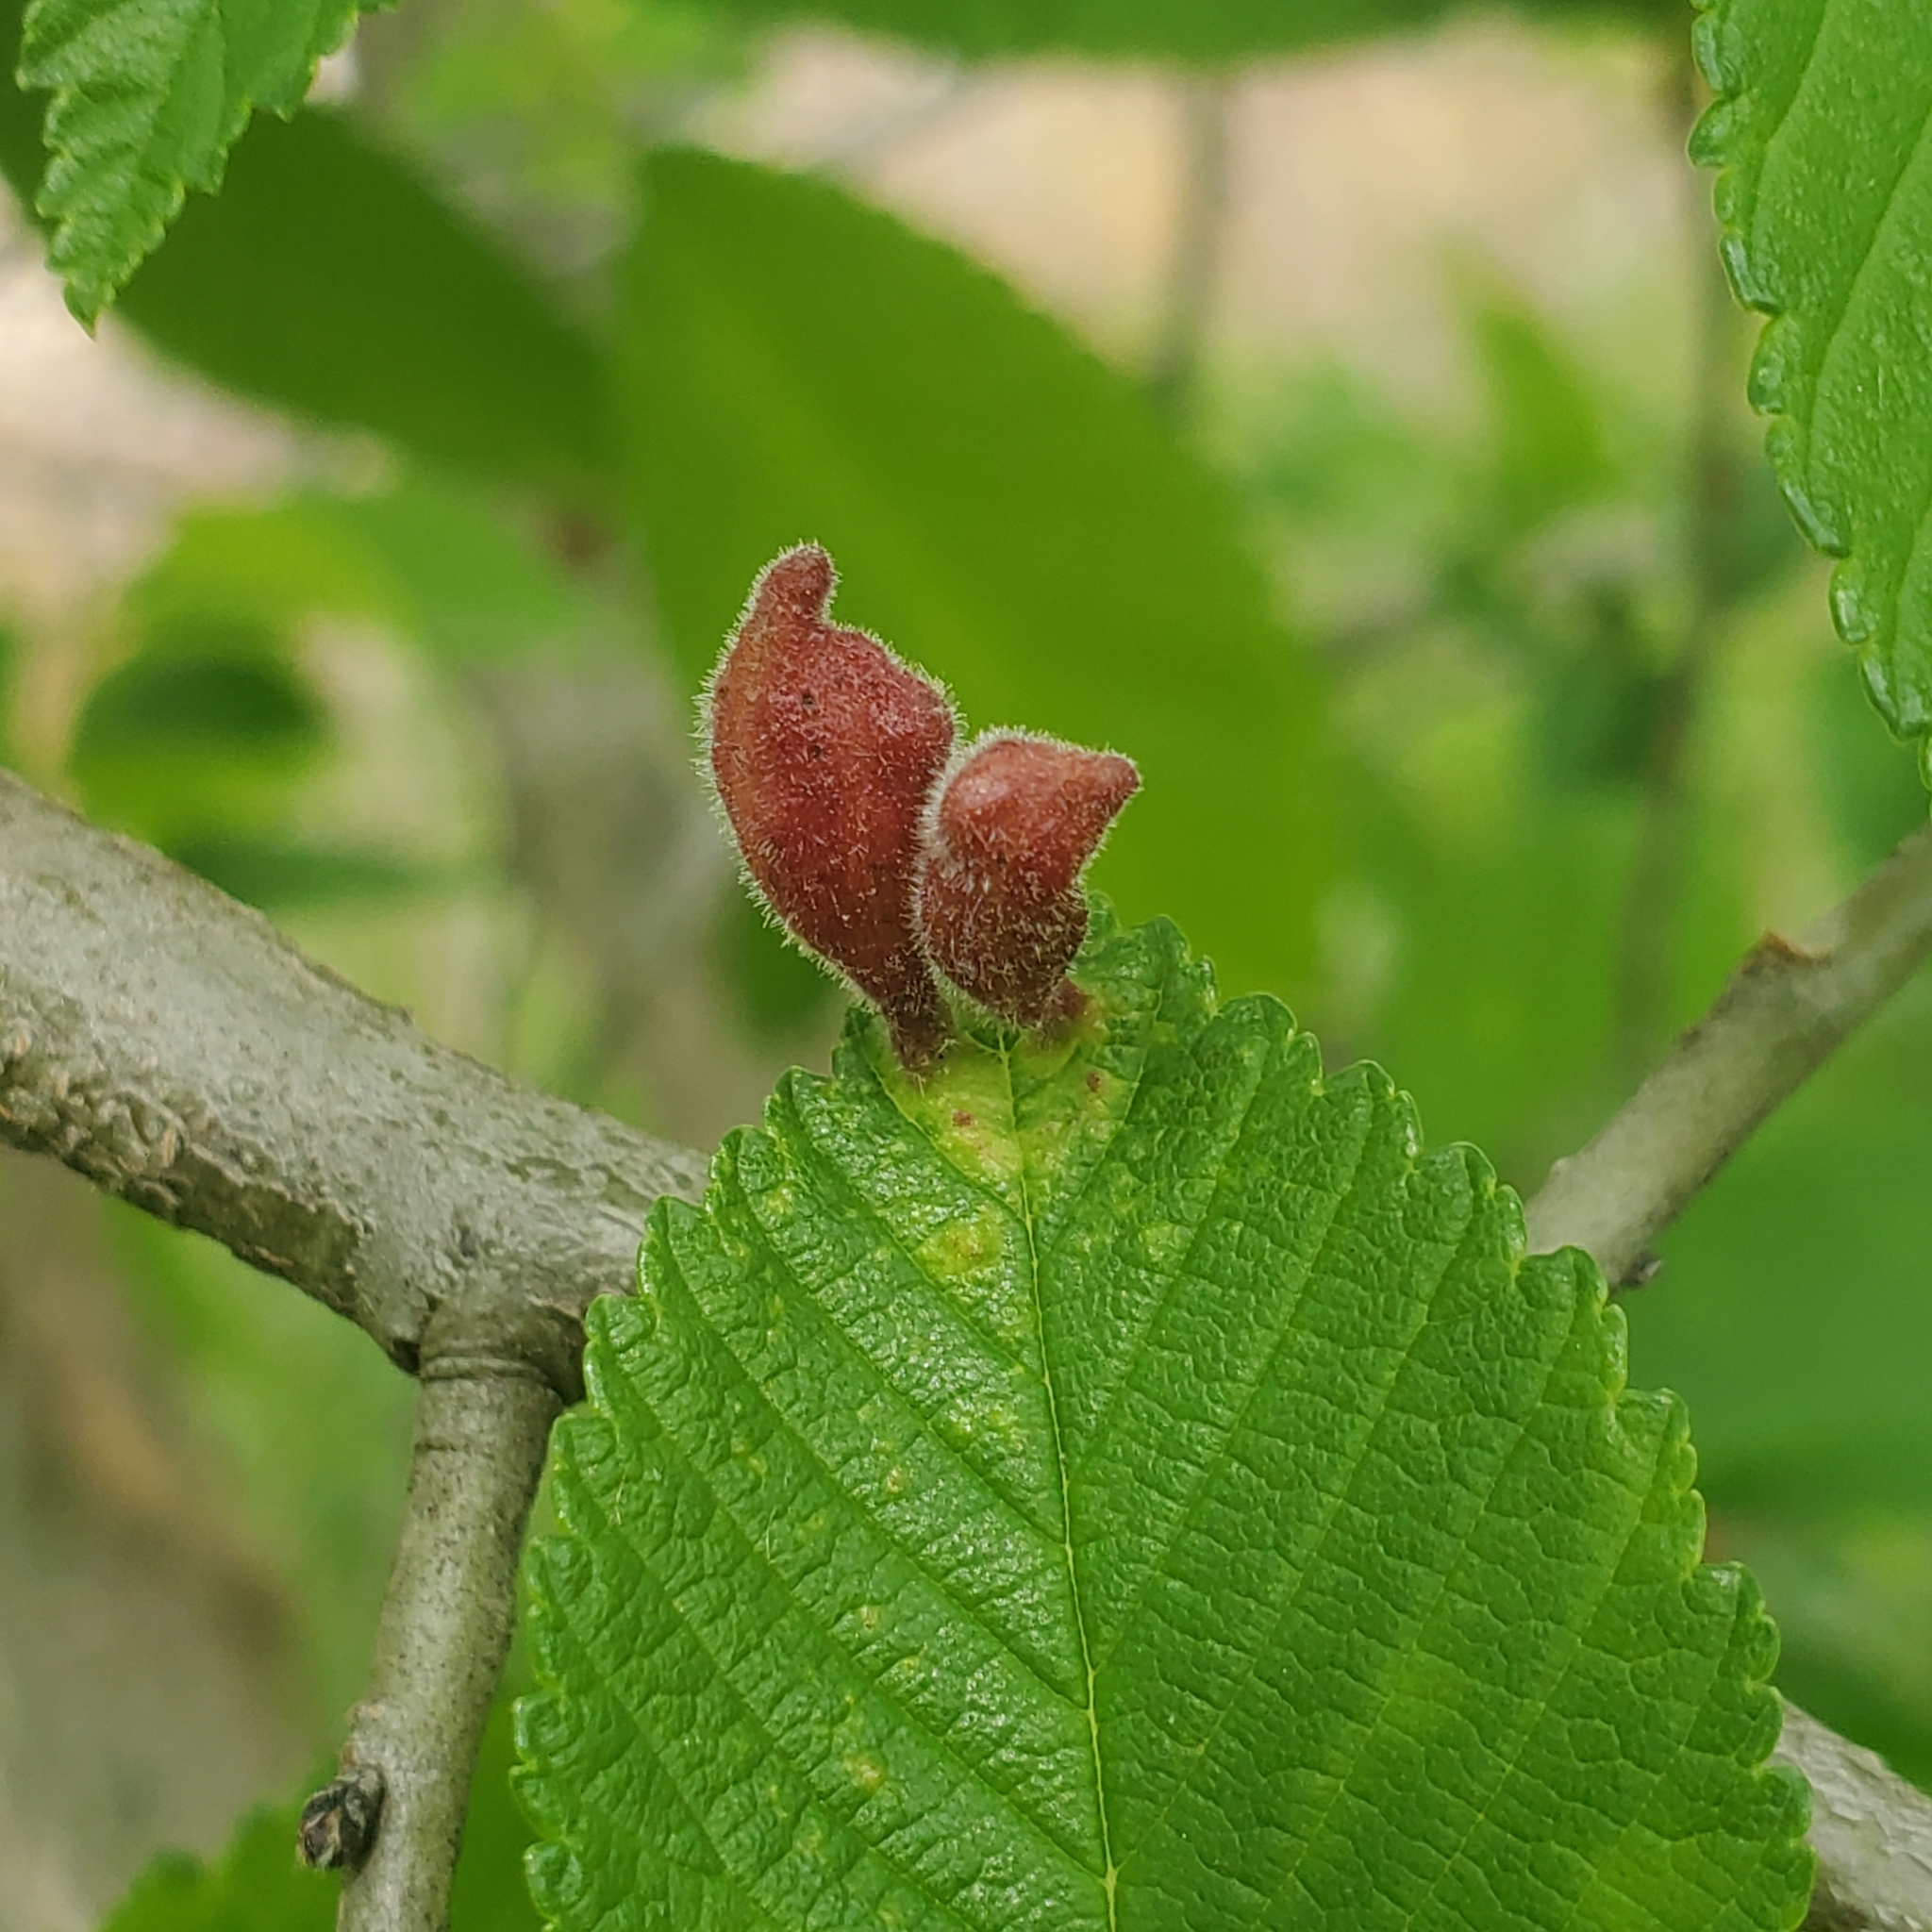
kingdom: Animalia
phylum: Arthropoda
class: Insecta
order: Hemiptera
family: Aphididae
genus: Tetraneura
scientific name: Tetraneura nigriabdominalis
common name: Aphid
